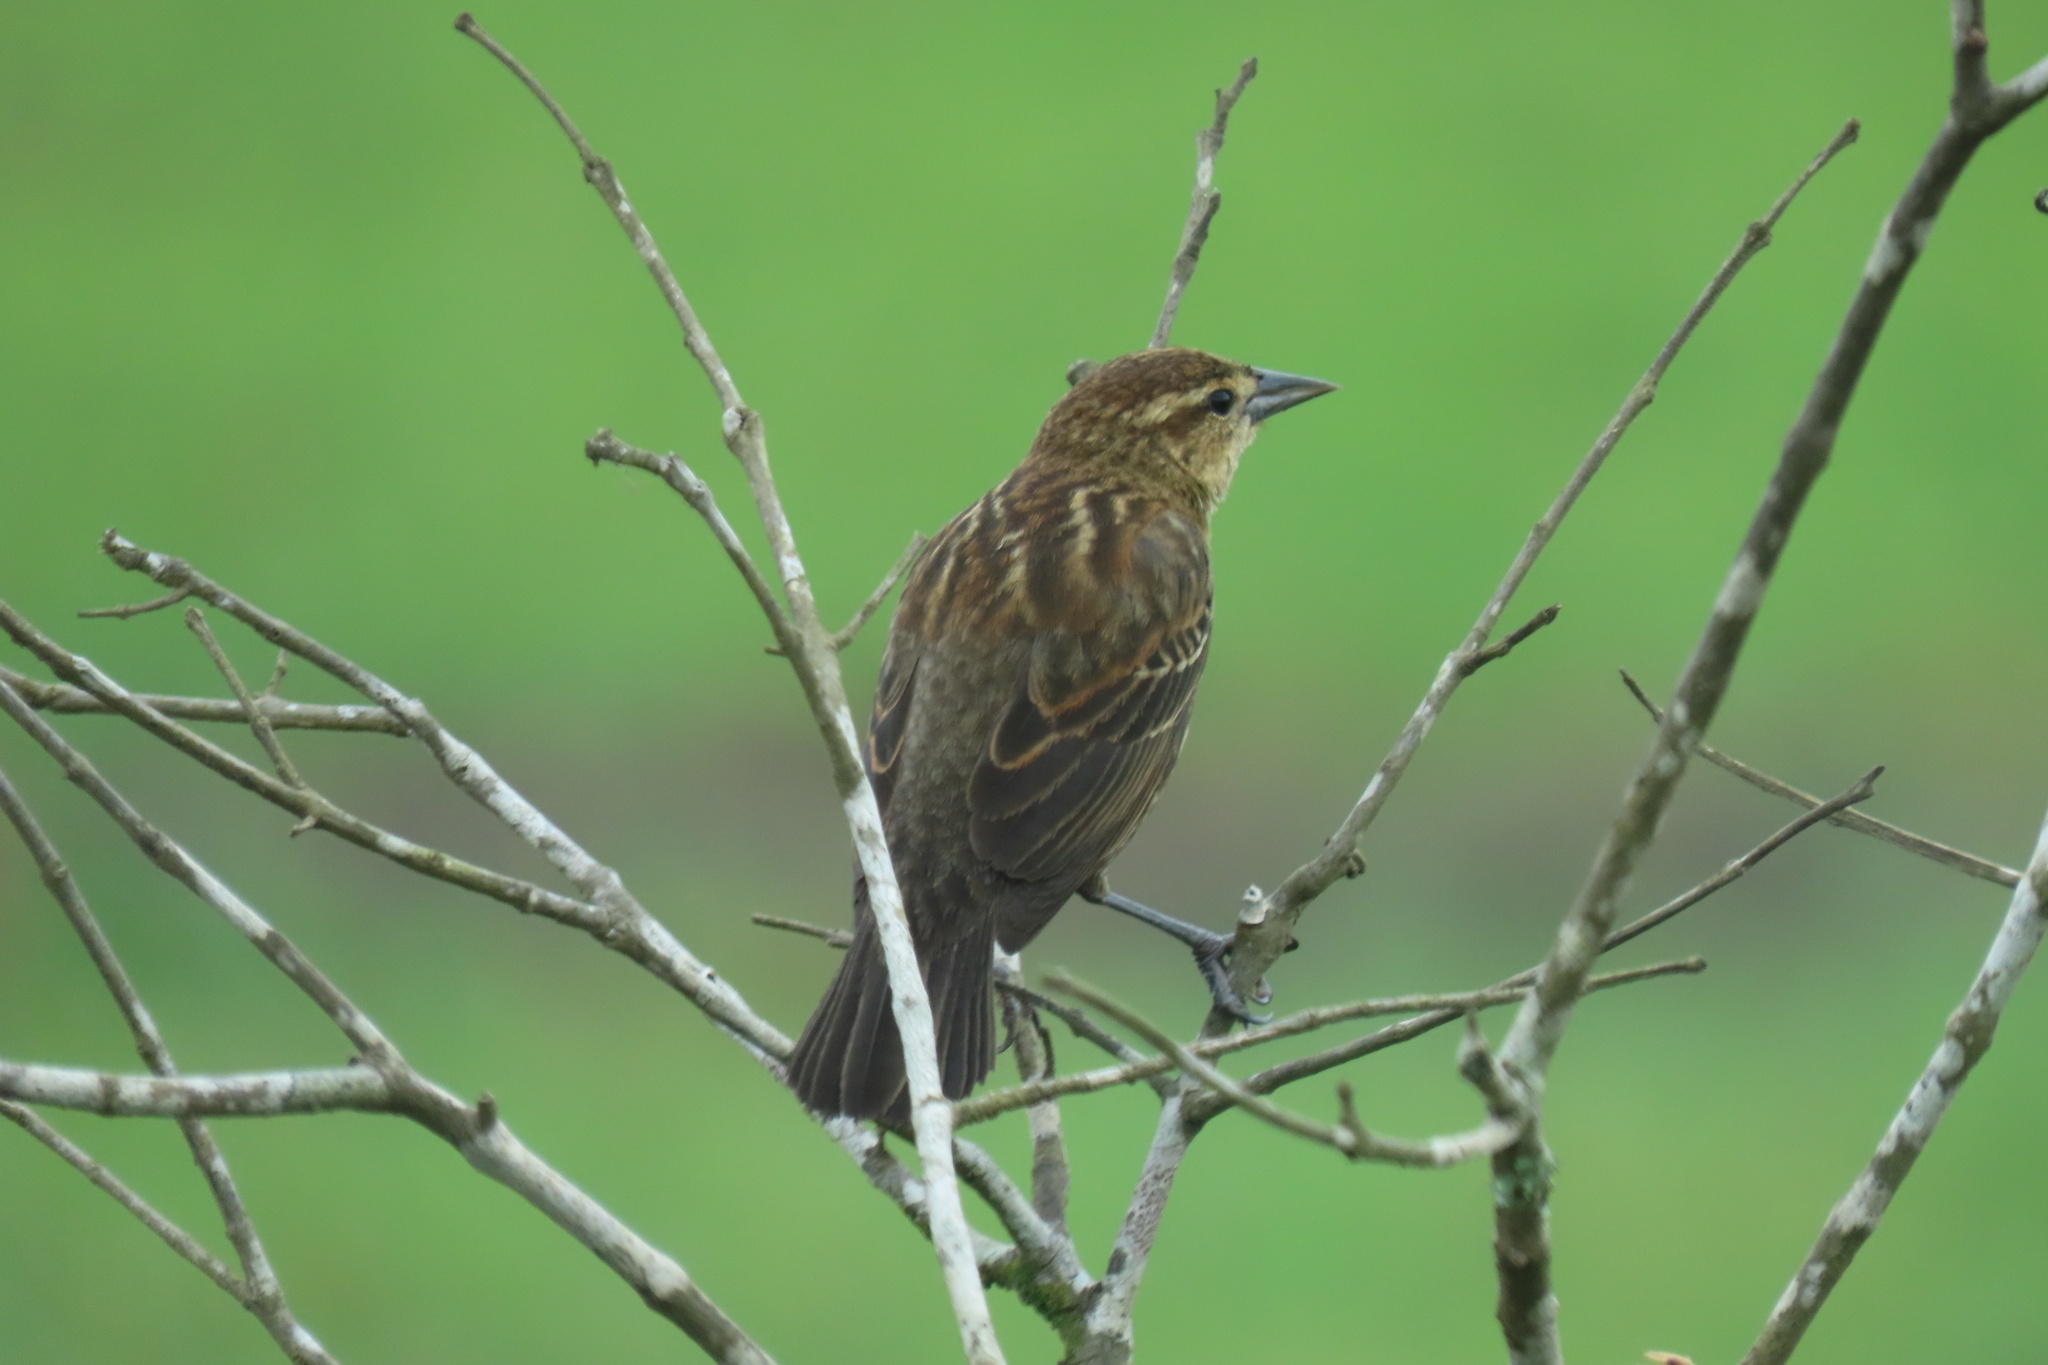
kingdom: Animalia
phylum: Chordata
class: Aves
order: Passeriformes
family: Icteridae
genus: Agelaius
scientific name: Agelaius phoeniceus
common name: Red-winged blackbird
